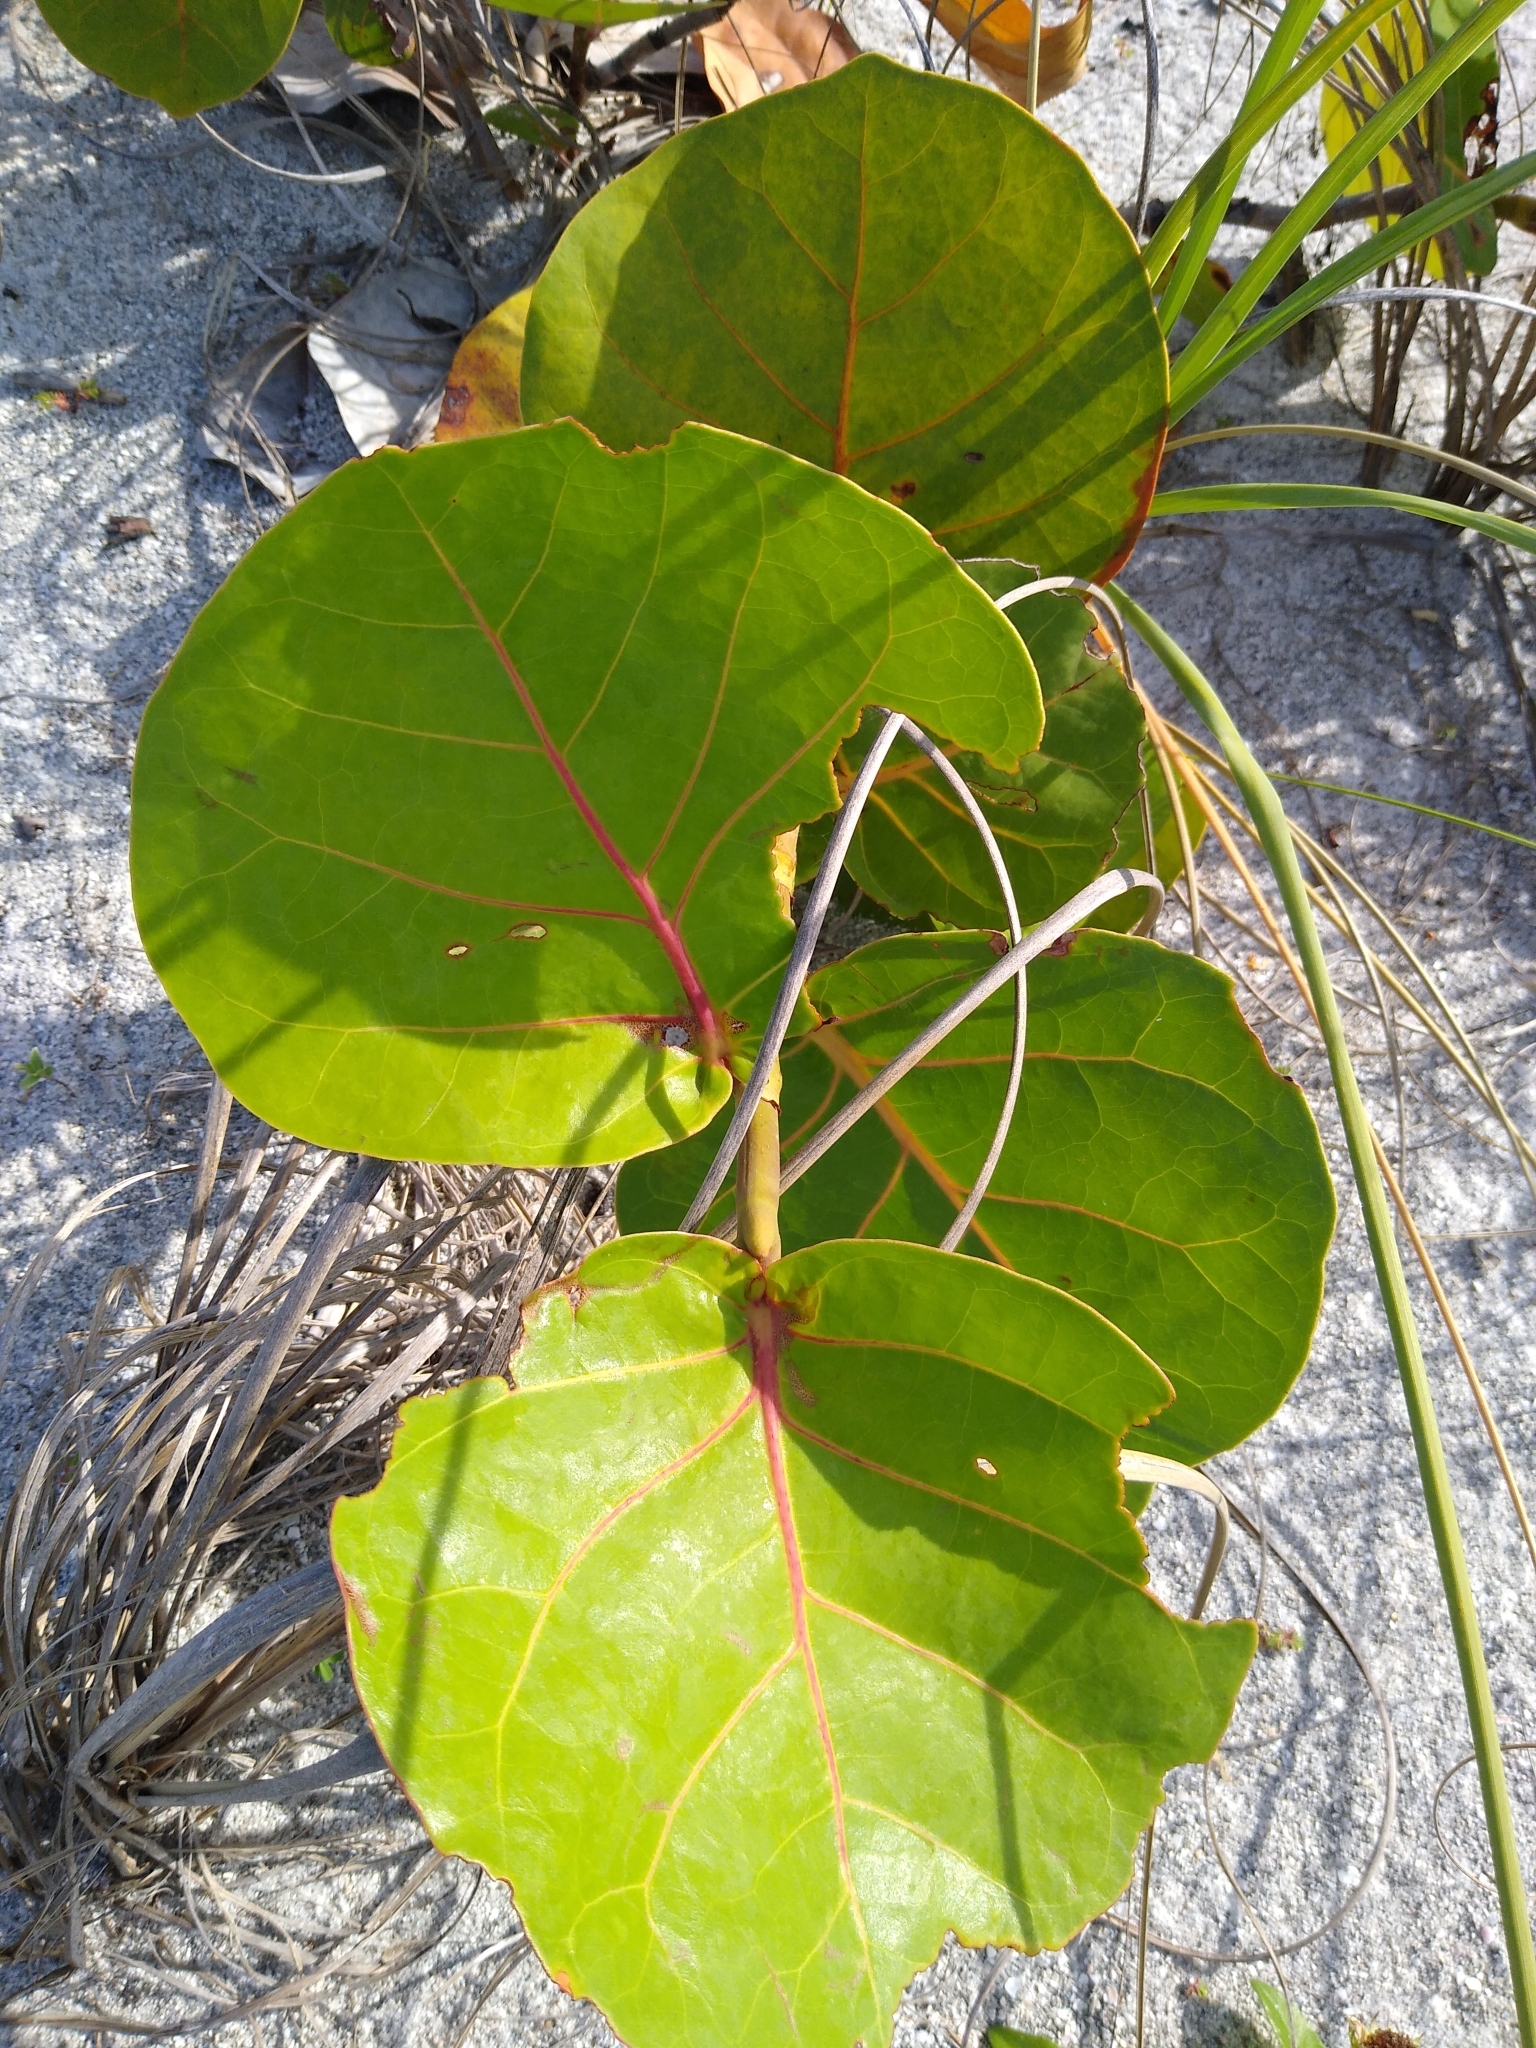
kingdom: Plantae
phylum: Tracheophyta
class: Magnoliopsida
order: Caryophyllales
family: Polygonaceae
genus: Coccoloba
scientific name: Coccoloba uvifera
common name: Seagrape
